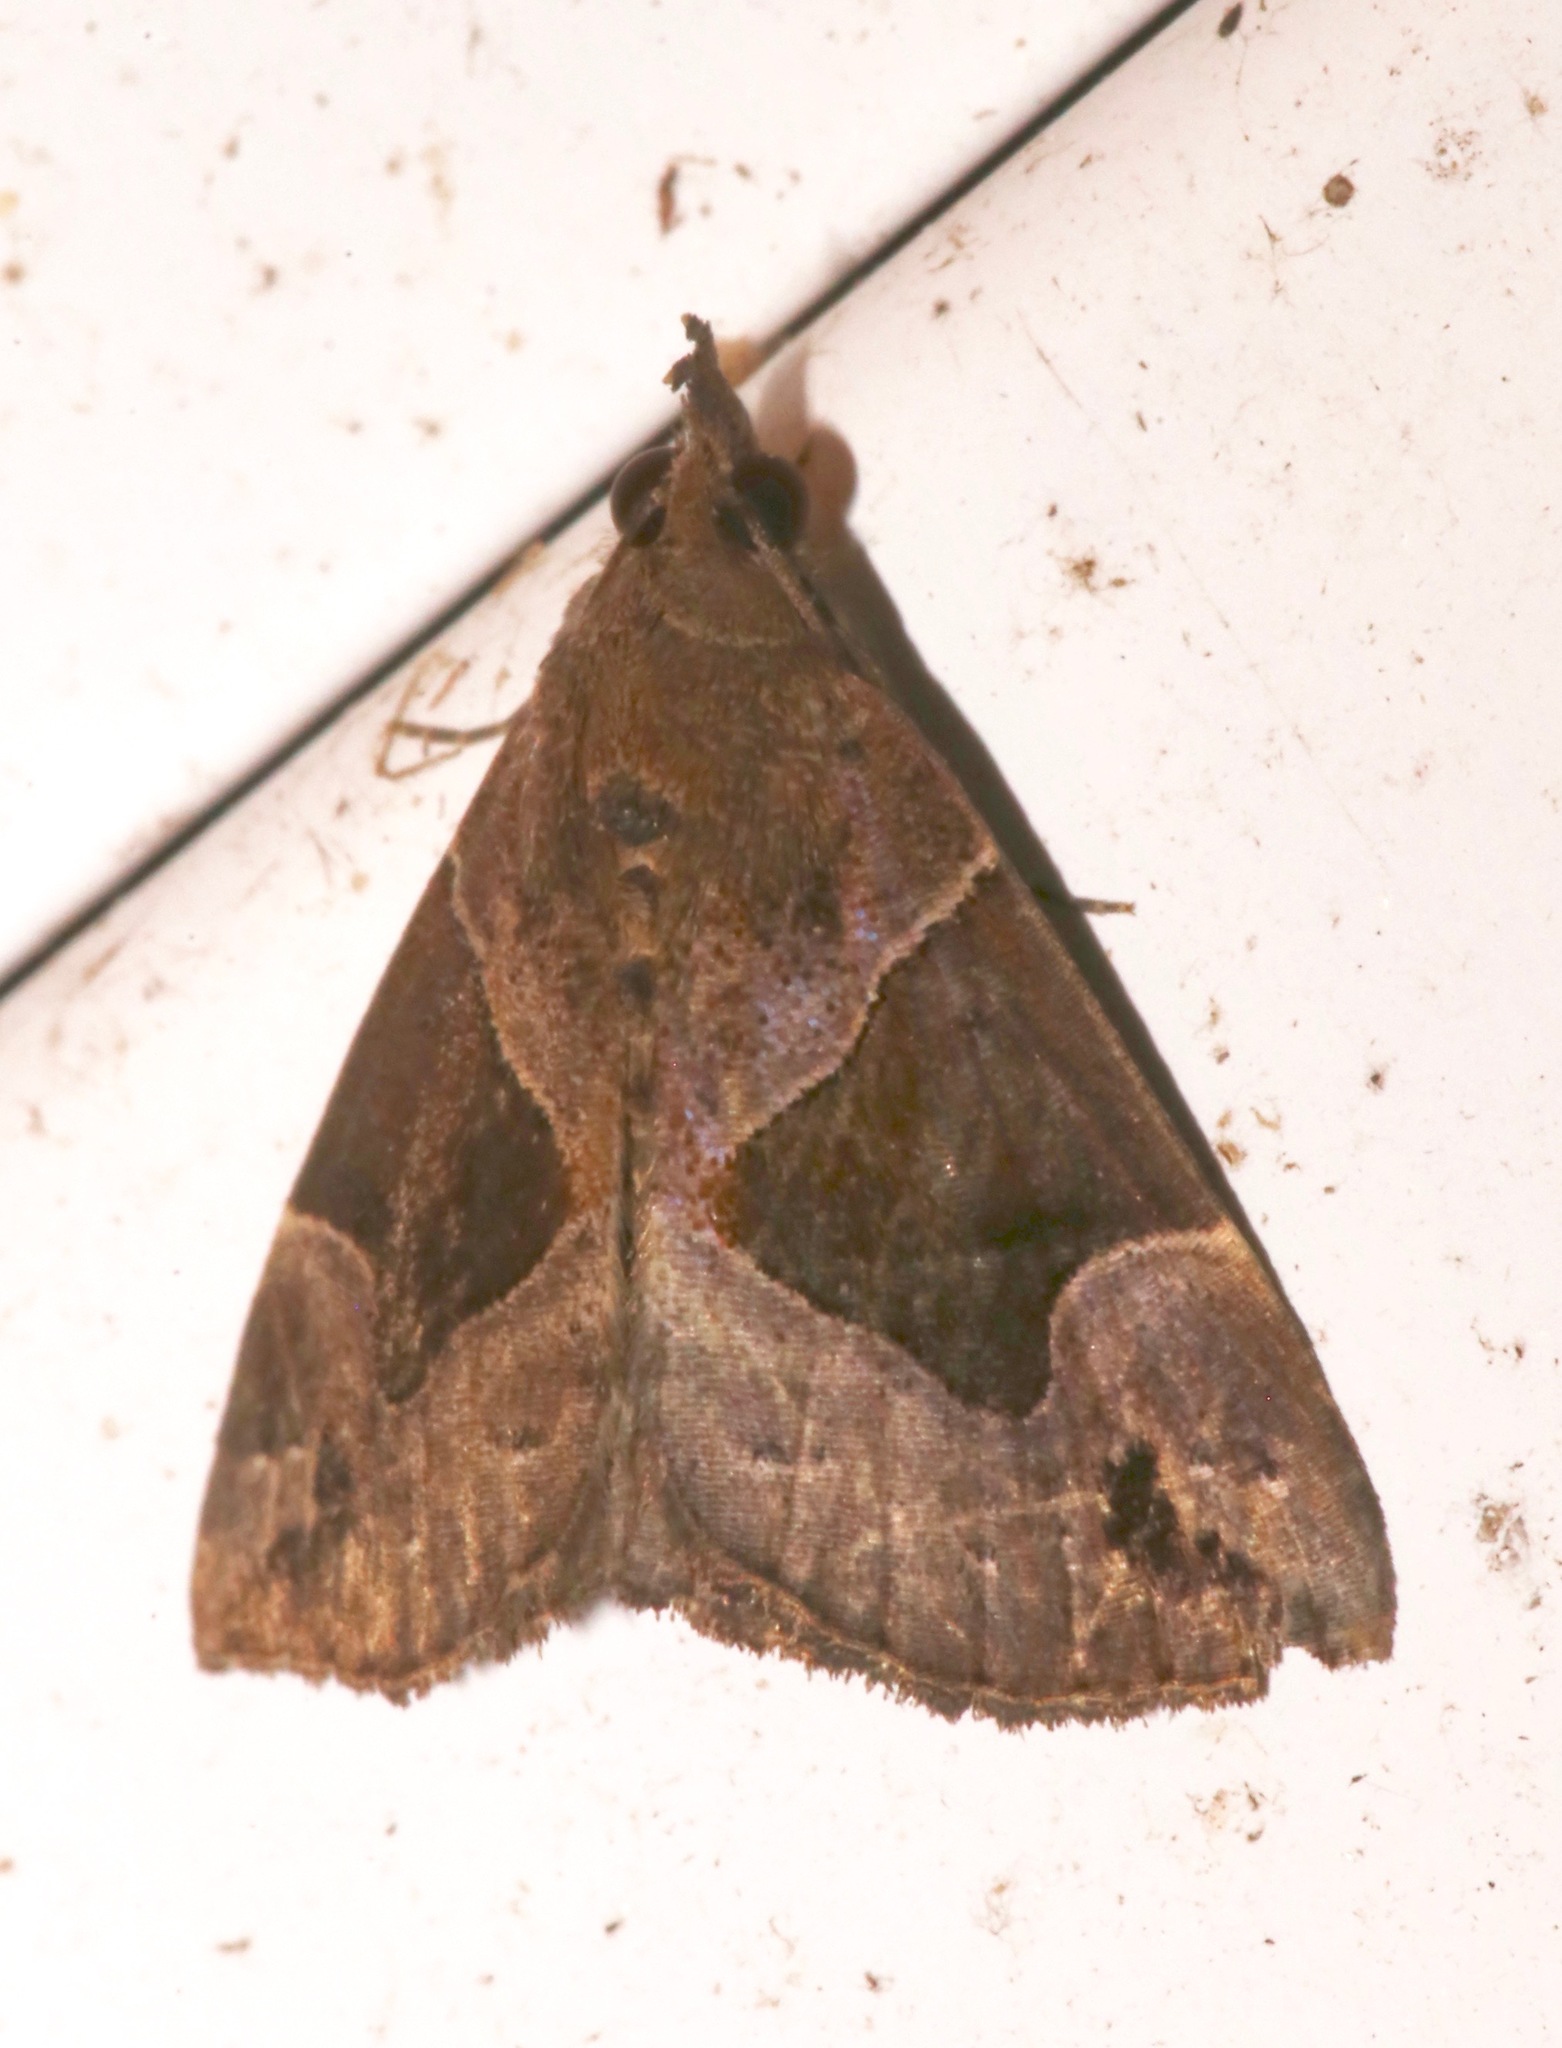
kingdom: Animalia
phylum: Arthropoda
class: Insecta
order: Lepidoptera
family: Erebidae
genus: Hypena
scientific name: Hypena manalis
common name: Flowing-line bomolocha moth
